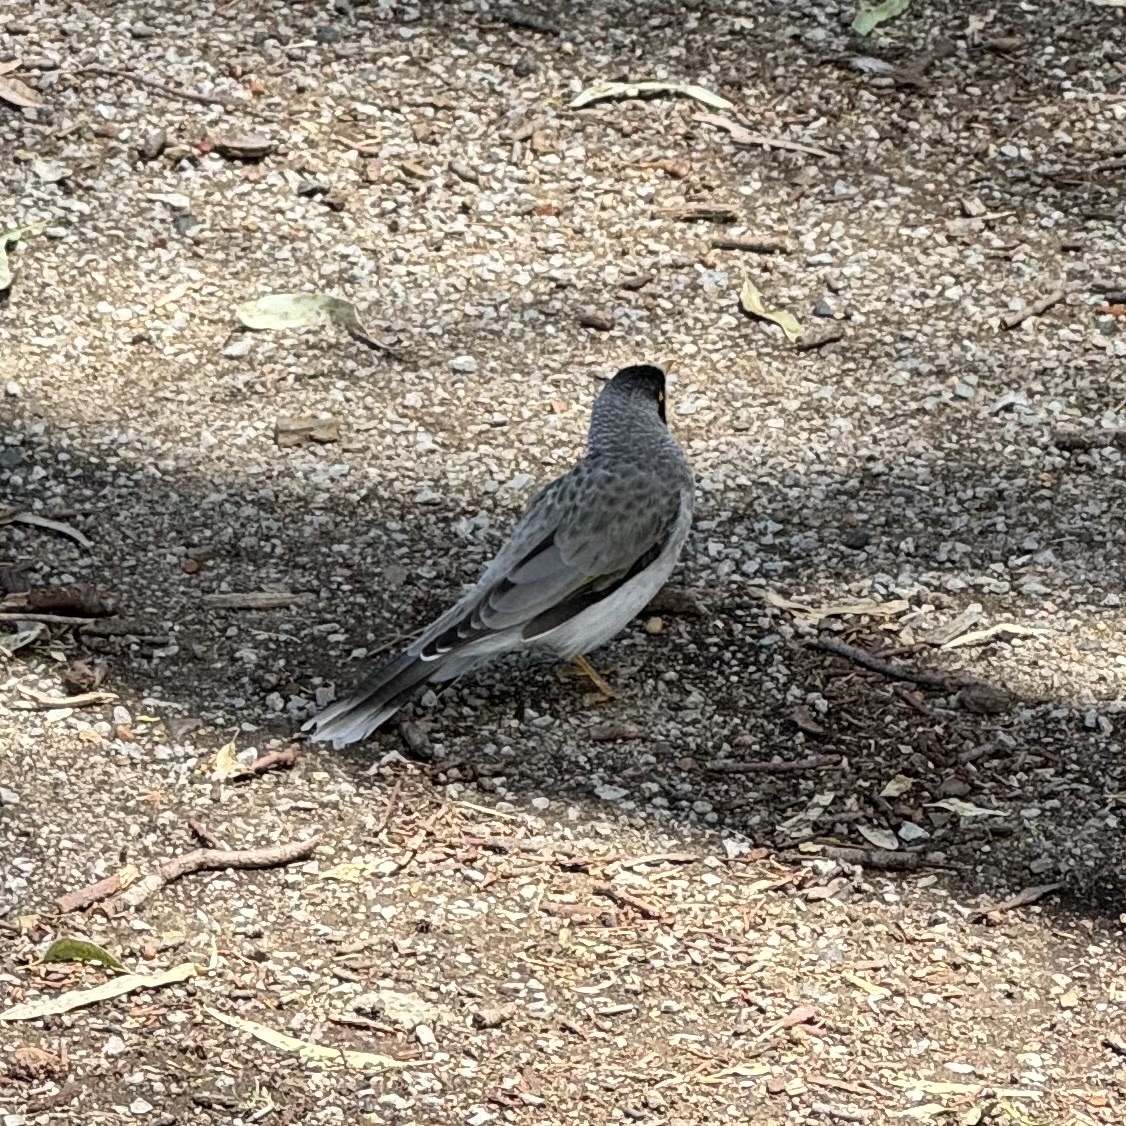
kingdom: Animalia
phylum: Chordata
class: Aves
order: Passeriformes
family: Meliphagidae
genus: Manorina
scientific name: Manorina melanocephala
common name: Noisy miner
